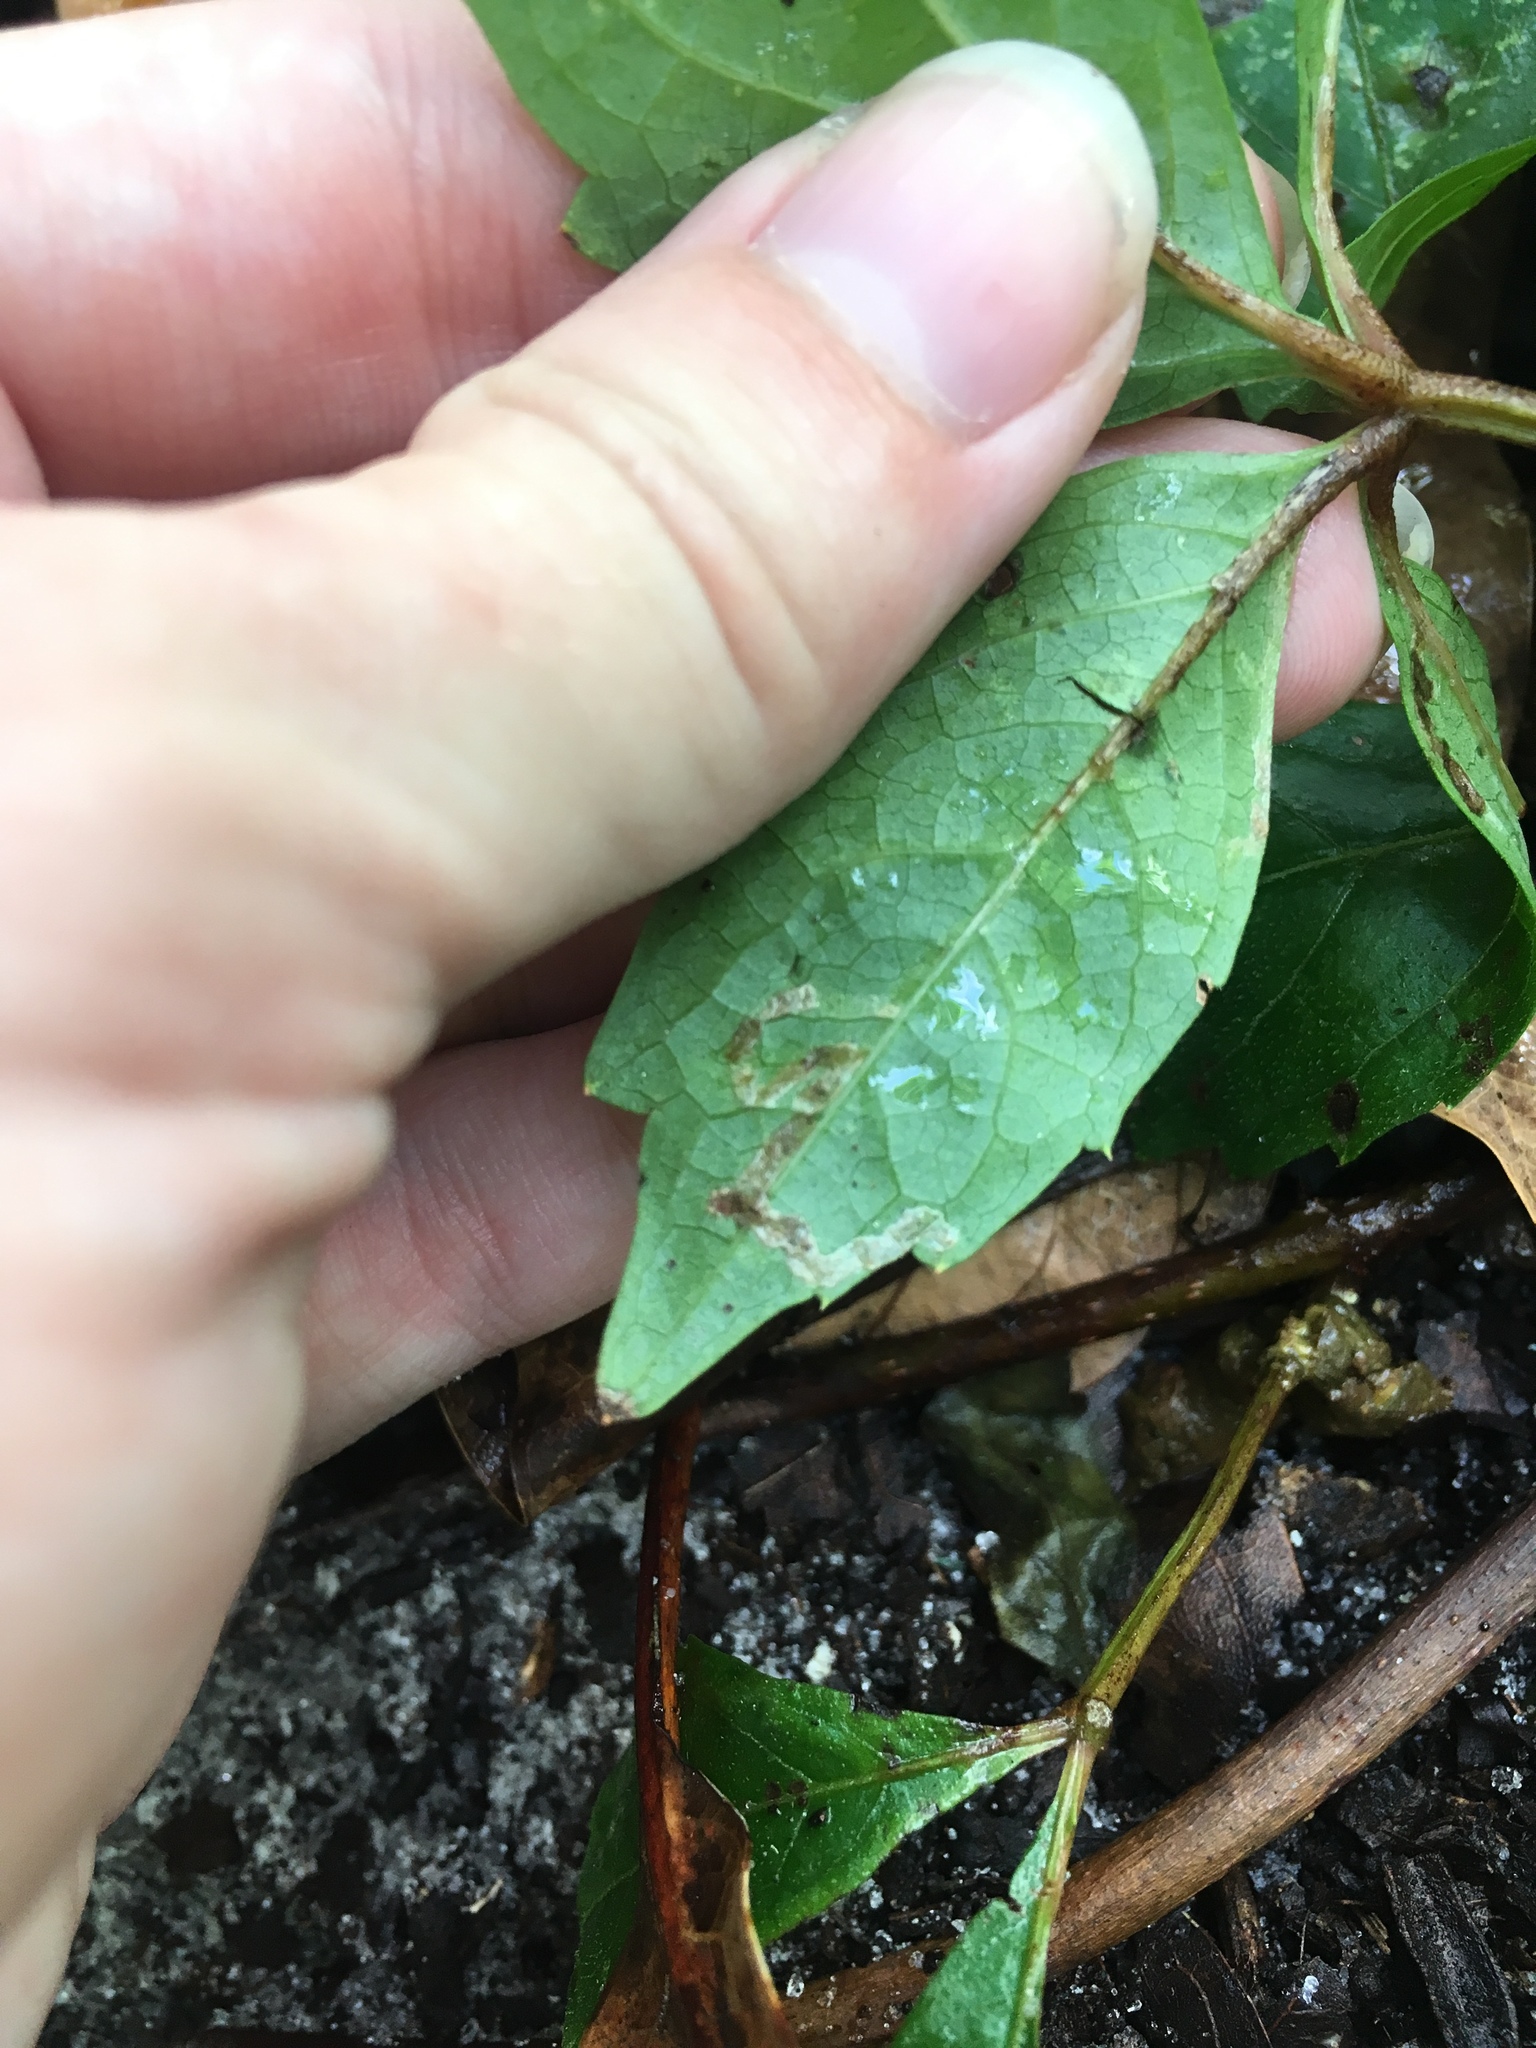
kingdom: Animalia
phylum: Arthropoda
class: Insecta
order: Lepidoptera
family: Gracillariidae
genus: Phyllocnistis
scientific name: Phyllocnistis ampelopsiella
